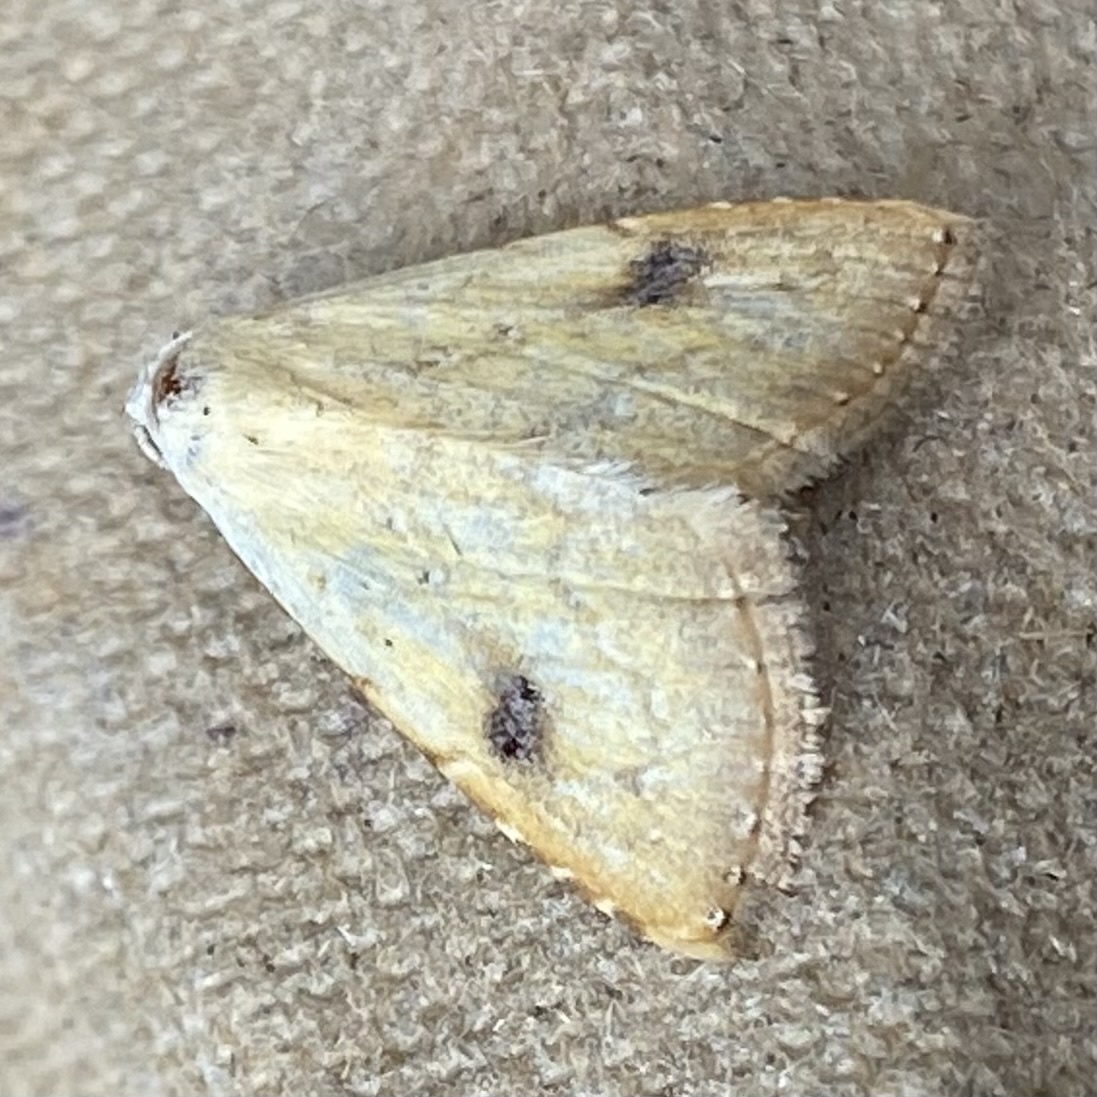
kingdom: Animalia
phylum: Arthropoda
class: Insecta
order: Lepidoptera
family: Erebidae
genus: Rivula
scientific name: Rivula sericealis
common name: Straw dot
